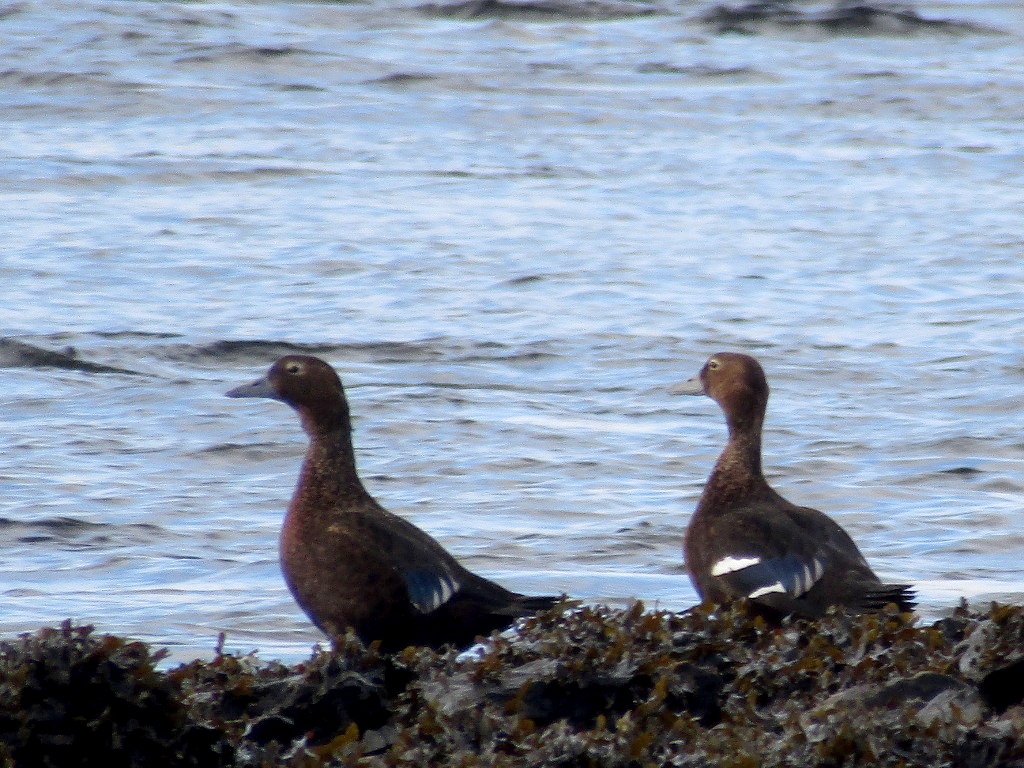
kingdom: Animalia
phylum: Chordata
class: Aves
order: Anseriformes
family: Anatidae
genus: Polysticta
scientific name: Polysticta stelleri
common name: Steller's eider
